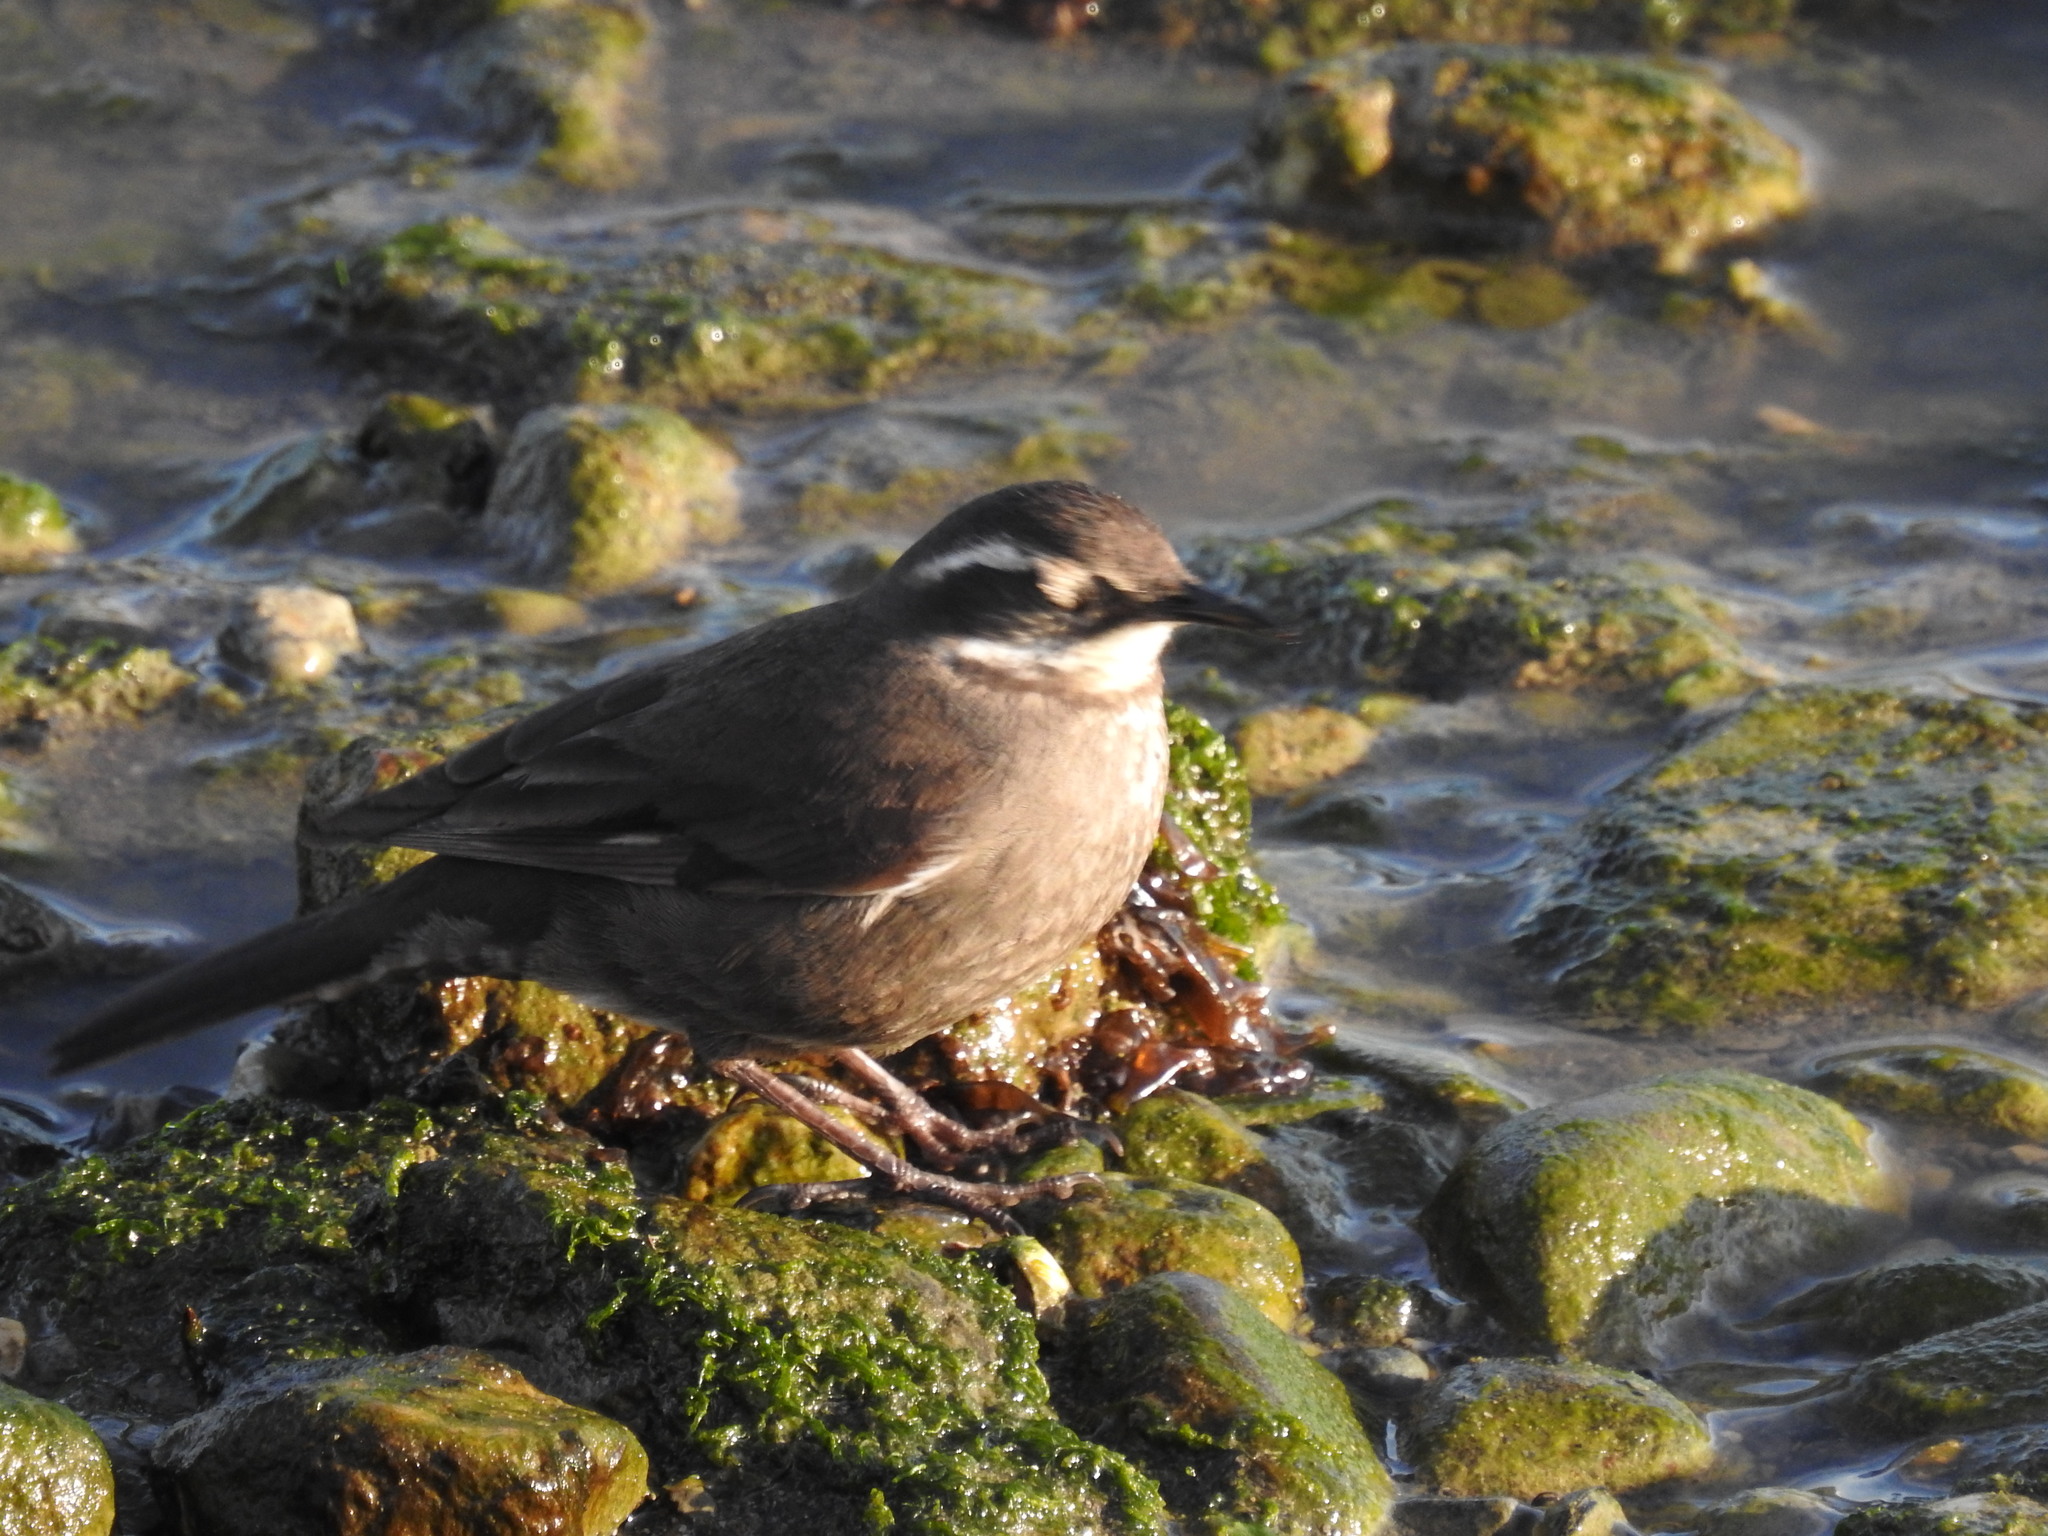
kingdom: Animalia
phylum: Chordata
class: Aves
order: Passeriformes
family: Furnariidae
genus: Cinclodes
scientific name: Cinclodes oustaleti
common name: Grey-flanked cinclodes
